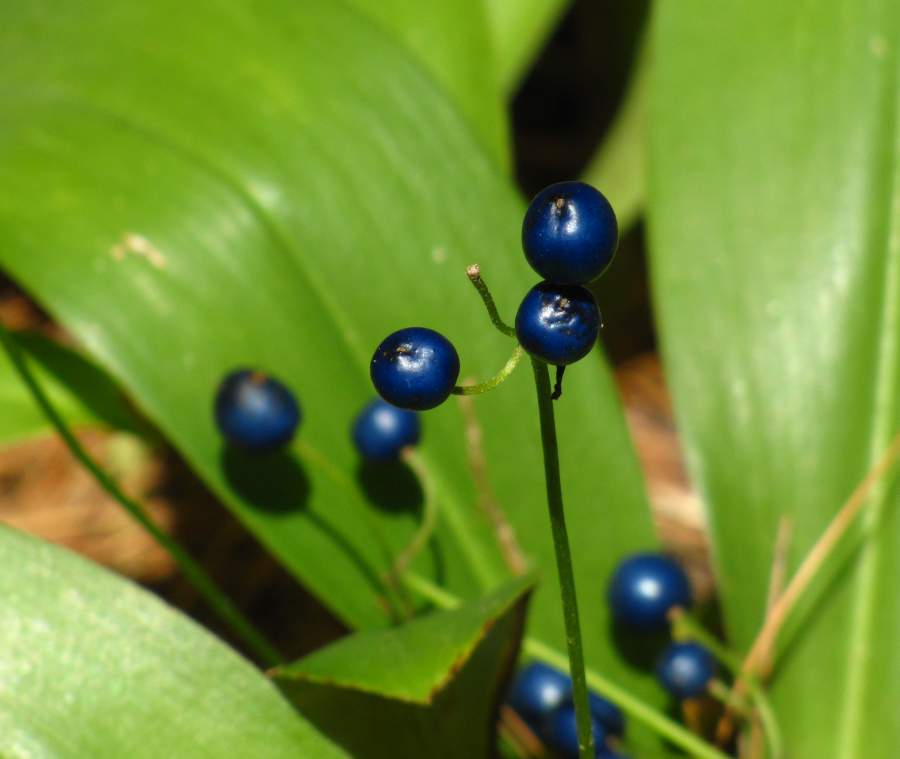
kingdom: Plantae
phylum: Tracheophyta
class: Liliopsida
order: Liliales
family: Liliaceae
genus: Clintonia
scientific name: Clintonia borealis
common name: Yellow clintonia
